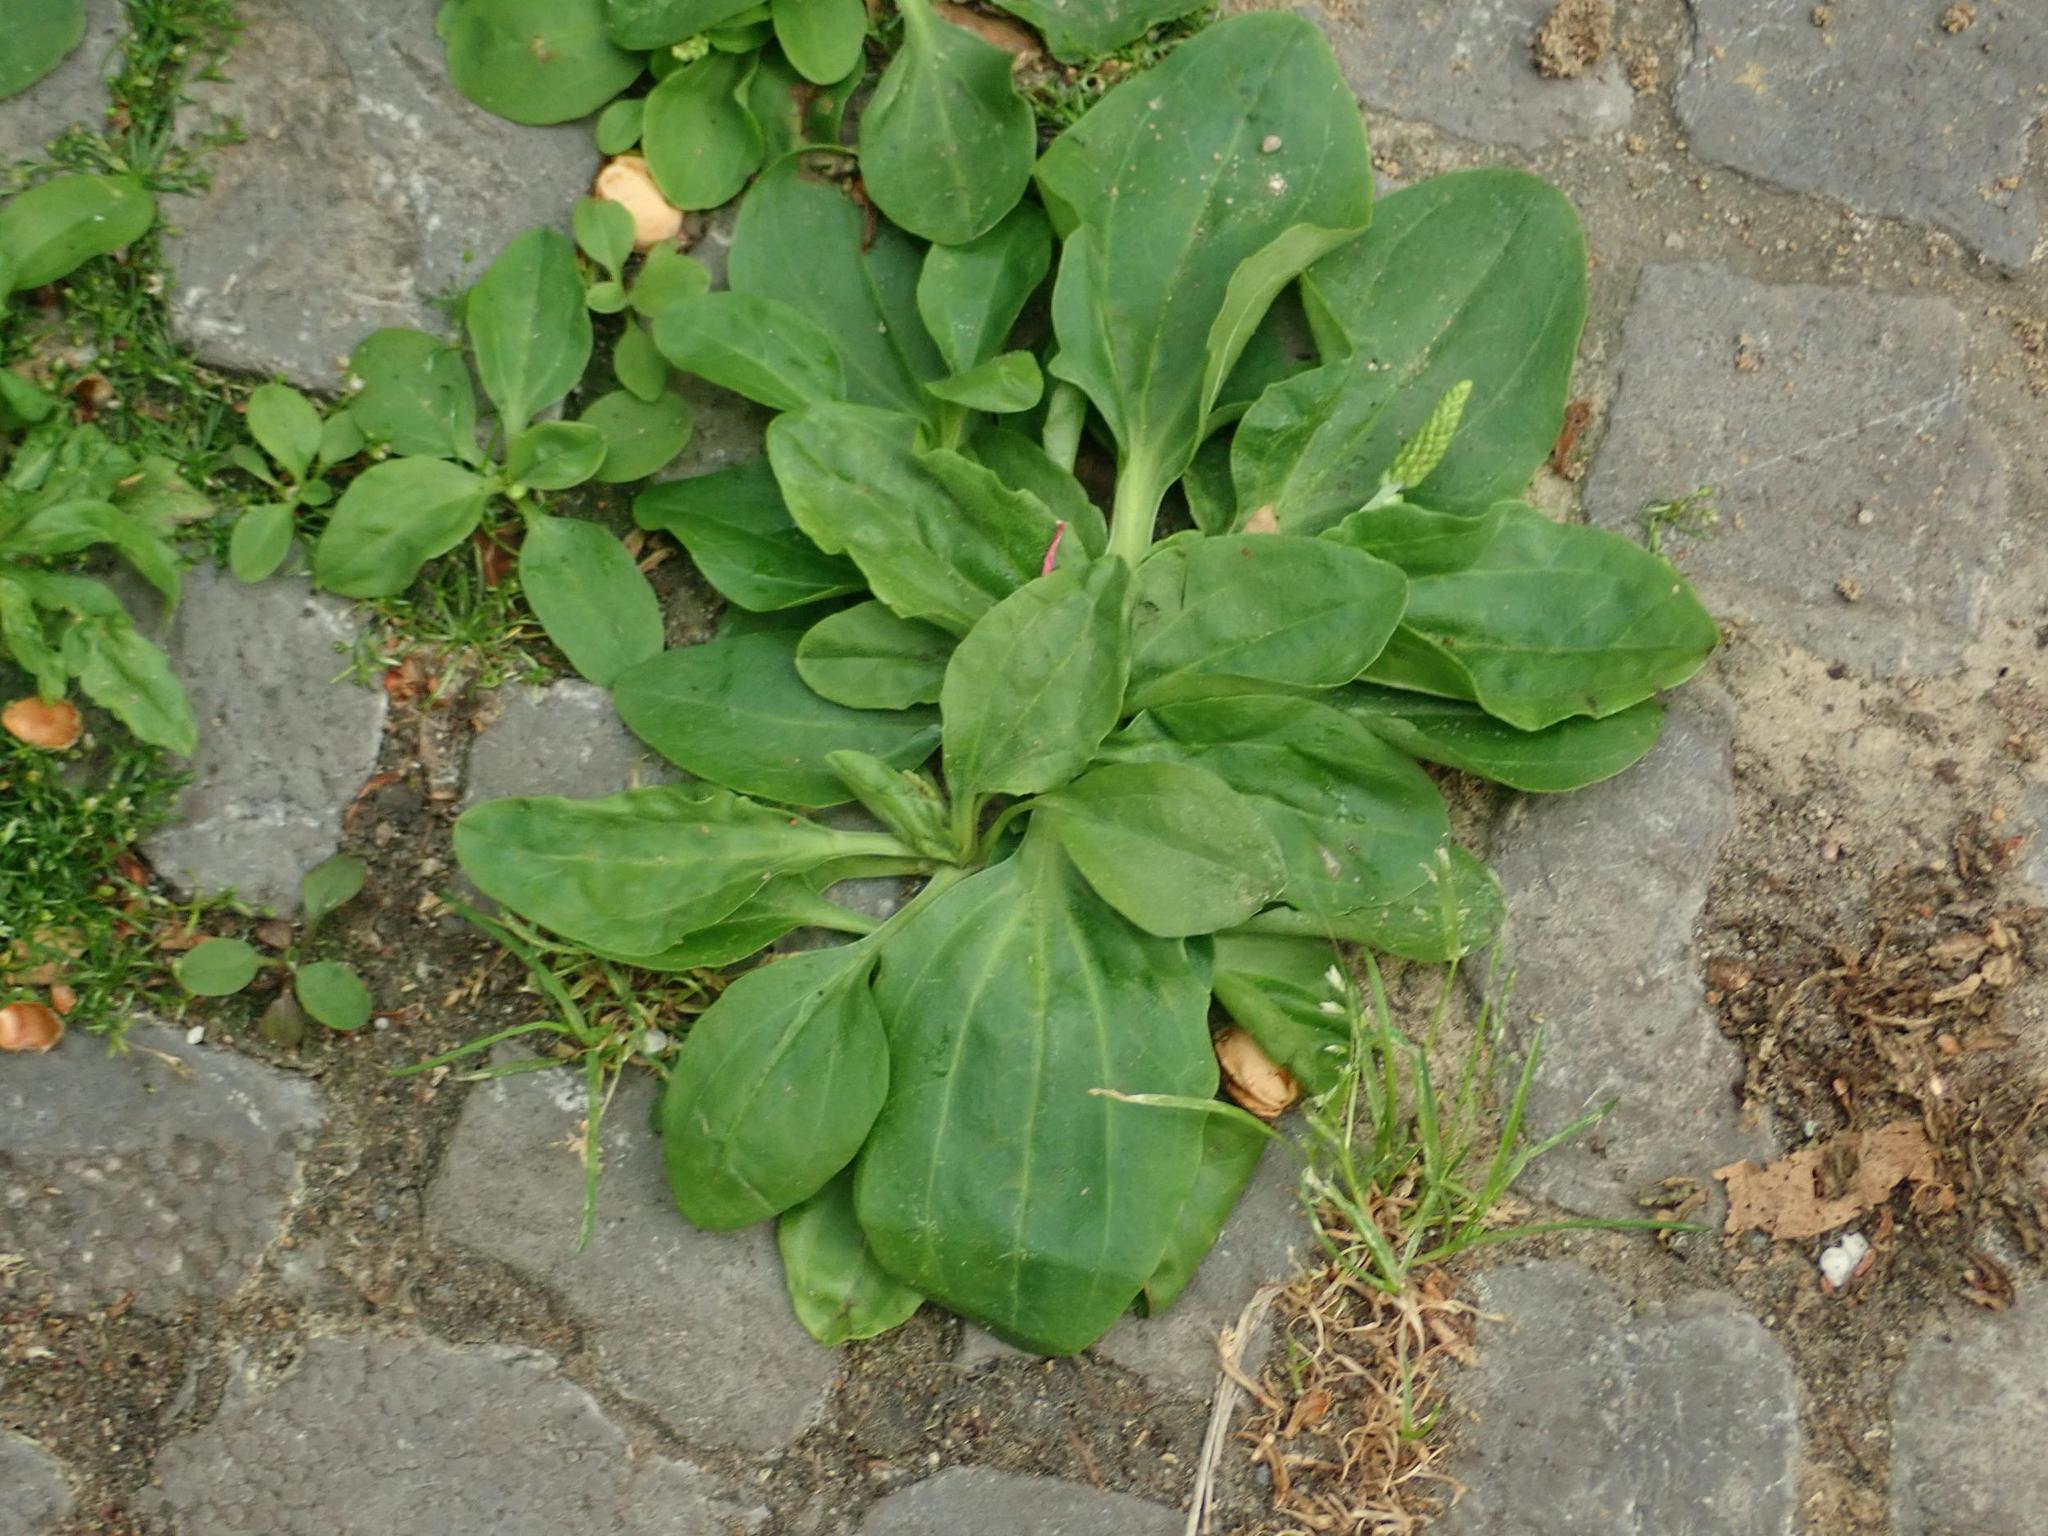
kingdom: Plantae
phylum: Tracheophyta
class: Magnoliopsida
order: Lamiales
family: Plantaginaceae
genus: Plantago
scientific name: Plantago major
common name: Common plantain
